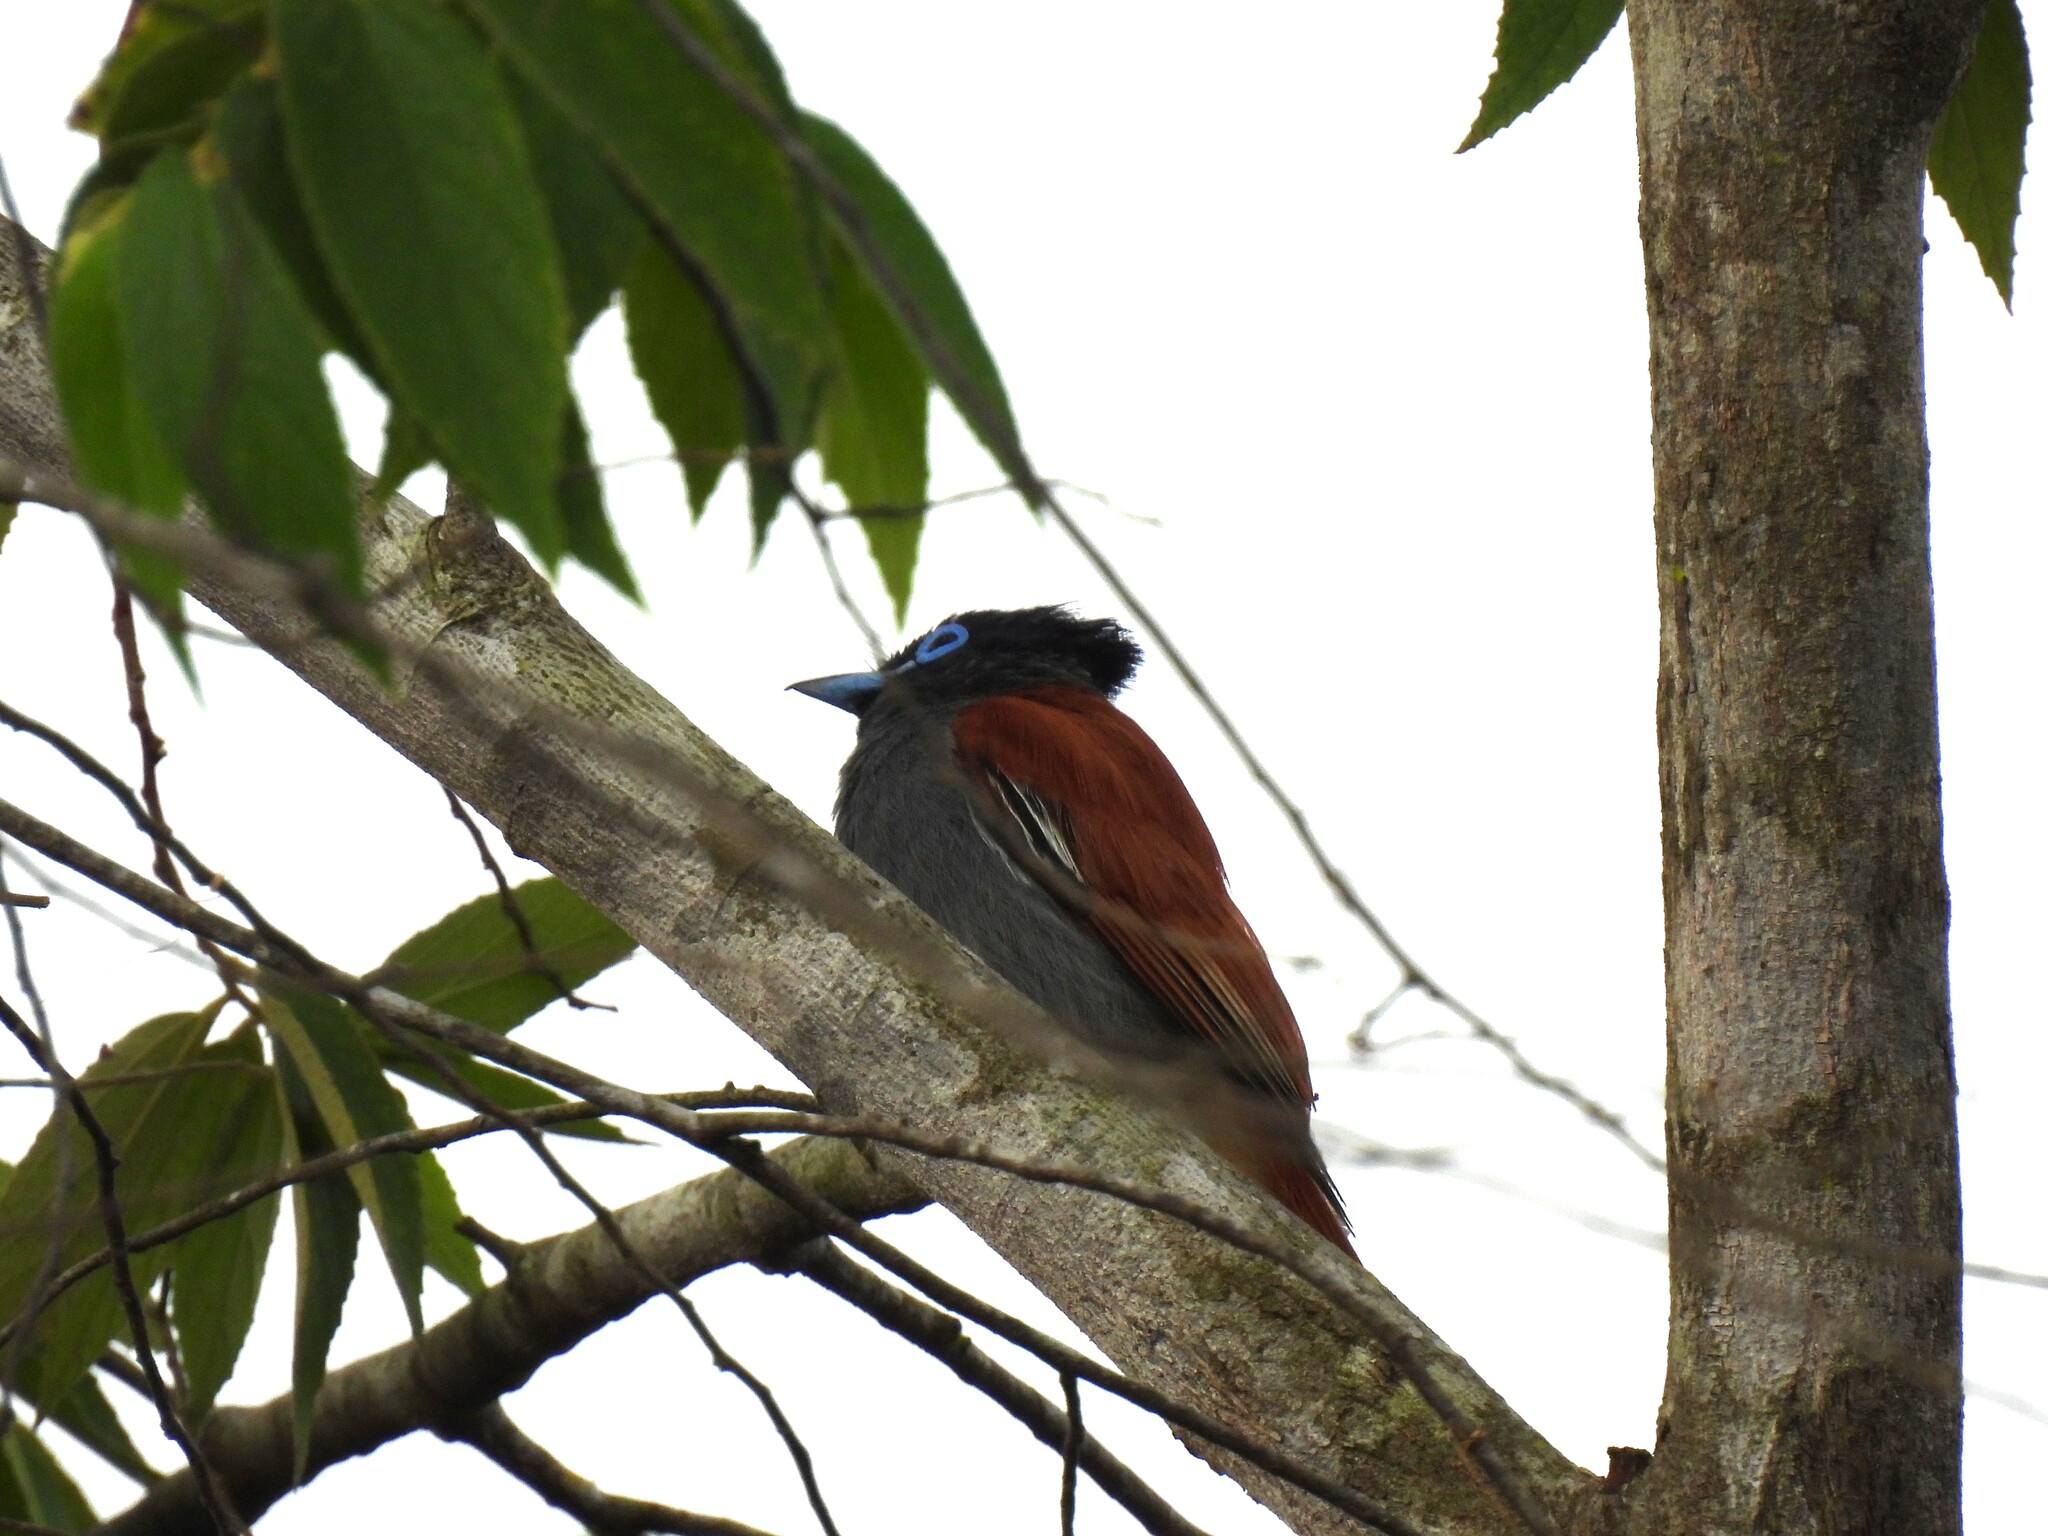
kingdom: Animalia
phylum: Chordata
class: Aves
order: Passeriformes
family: Monarchidae
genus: Terpsiphone
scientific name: Terpsiphone viridis
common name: African paradise flycatcher
